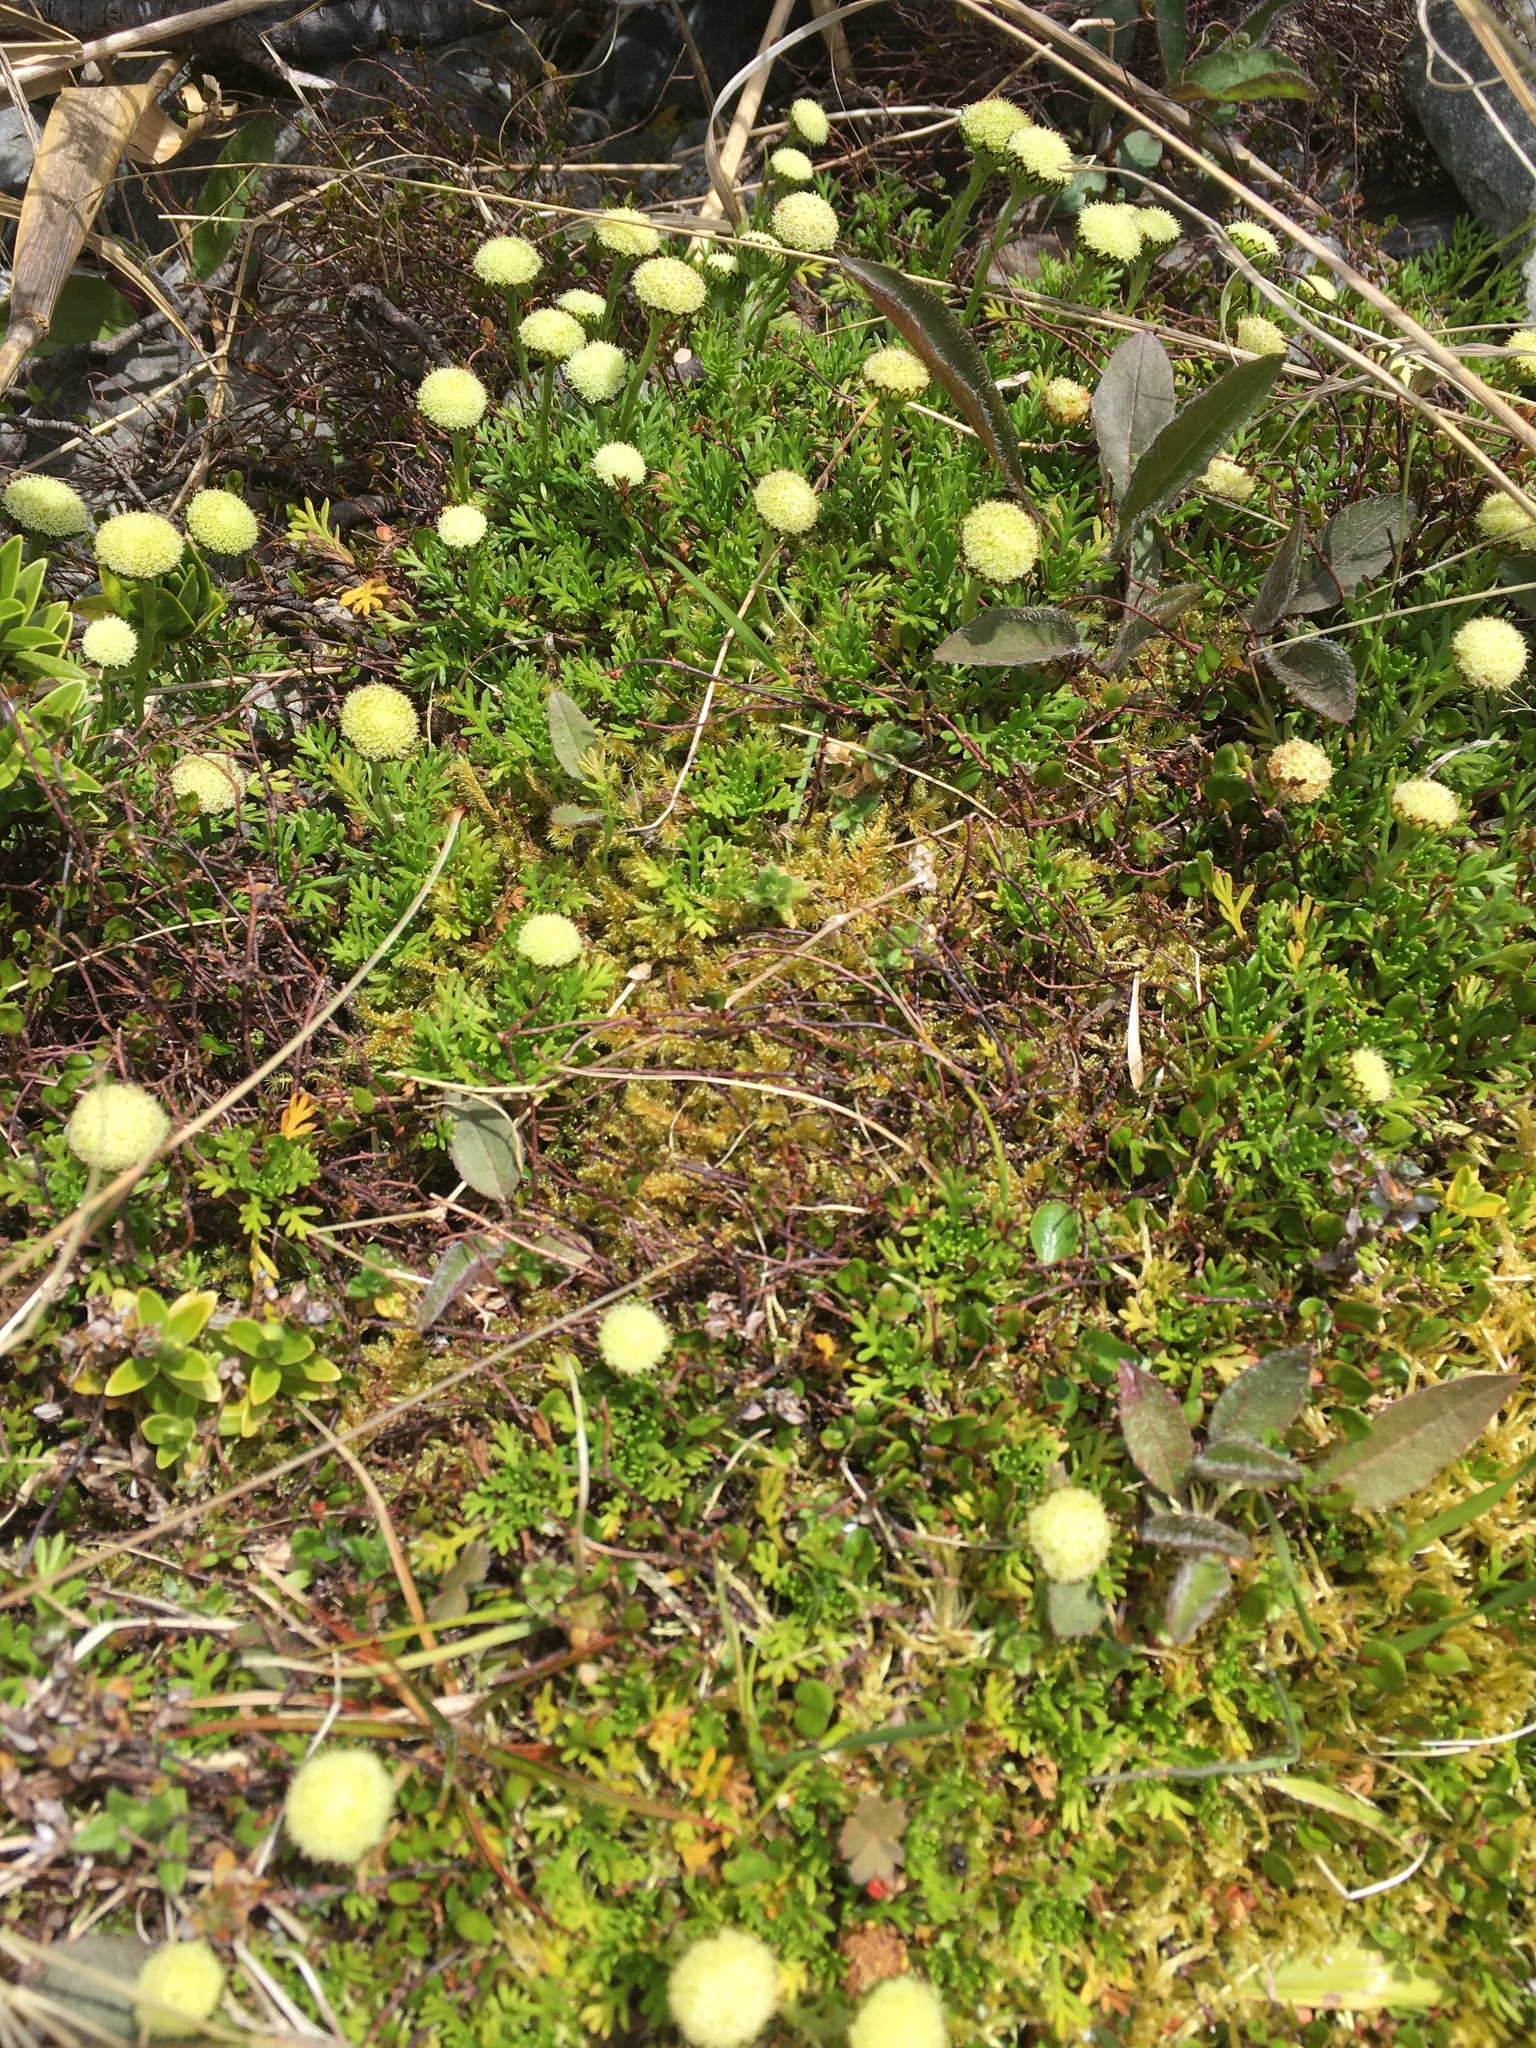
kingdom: Plantae
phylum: Tracheophyta
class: Magnoliopsida
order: Asterales
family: Asteraceae
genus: Leptinella
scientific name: Leptinella pyrethrifolia
